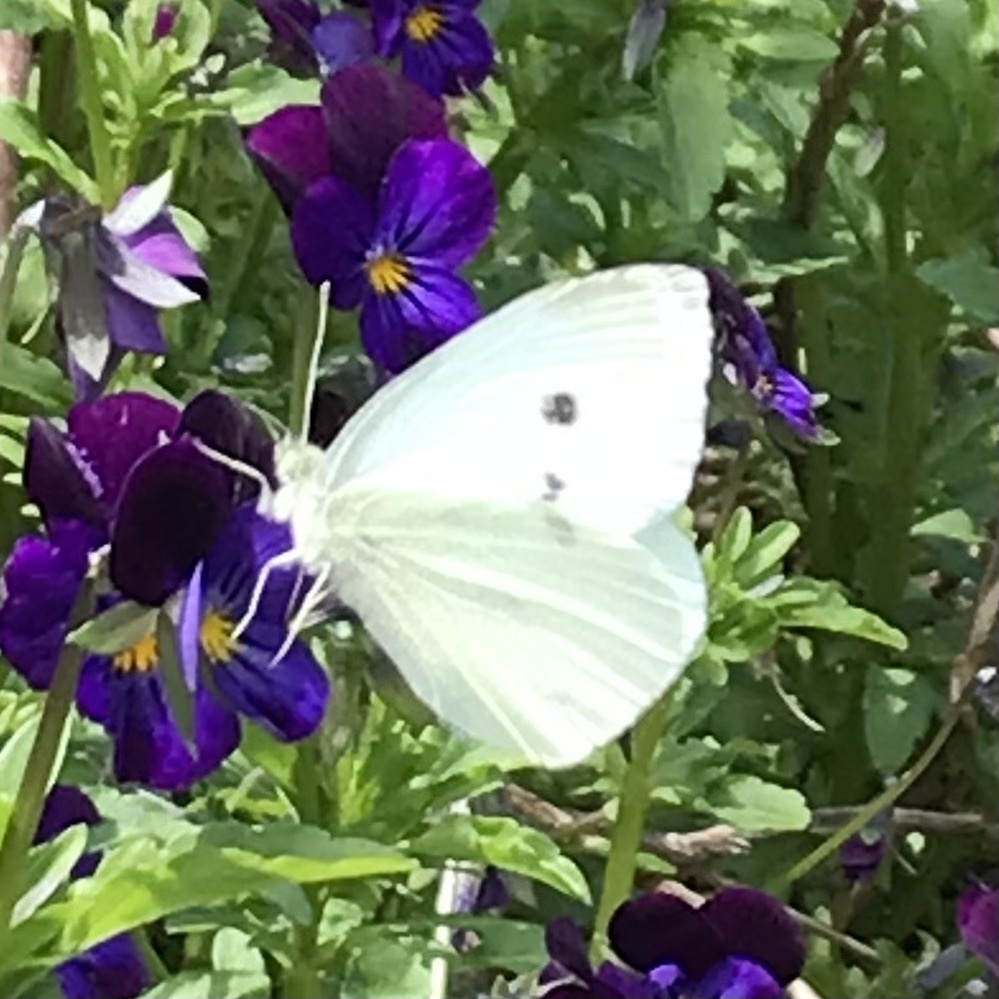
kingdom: Animalia
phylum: Arthropoda
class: Insecta
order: Lepidoptera
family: Pieridae
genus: Pieris
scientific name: Pieris rapae
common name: Small white
